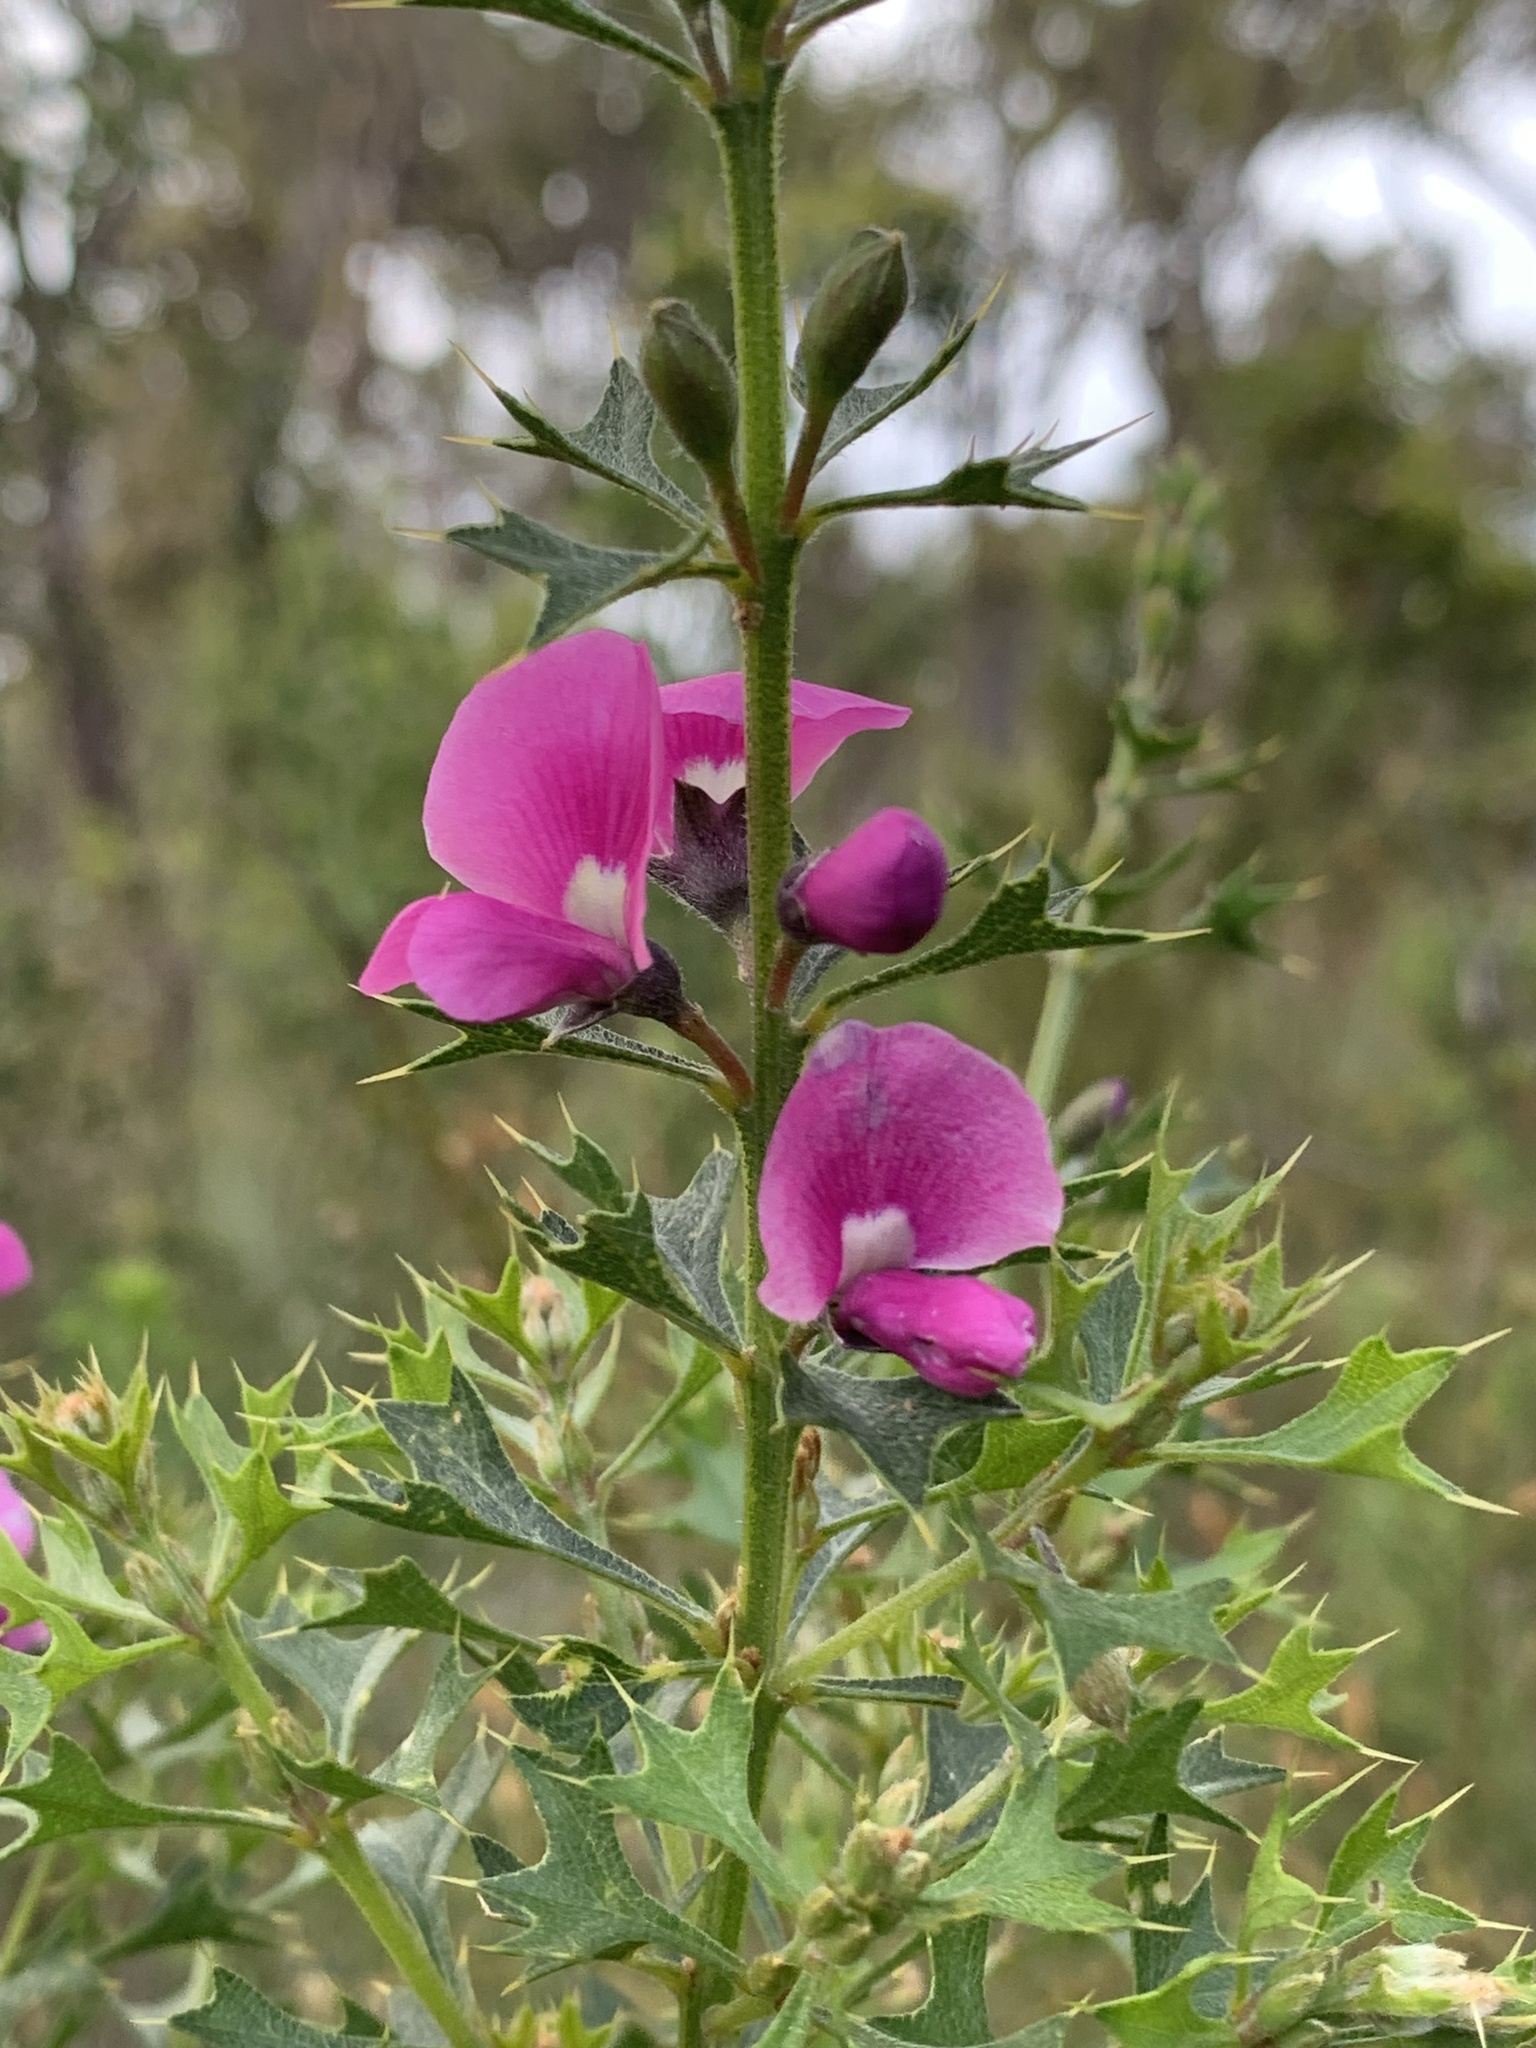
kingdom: Plantae
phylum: Tracheophyta
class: Magnoliopsida
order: Fabales
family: Fabaceae
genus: Mirbelia
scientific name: Mirbelia dilatata
